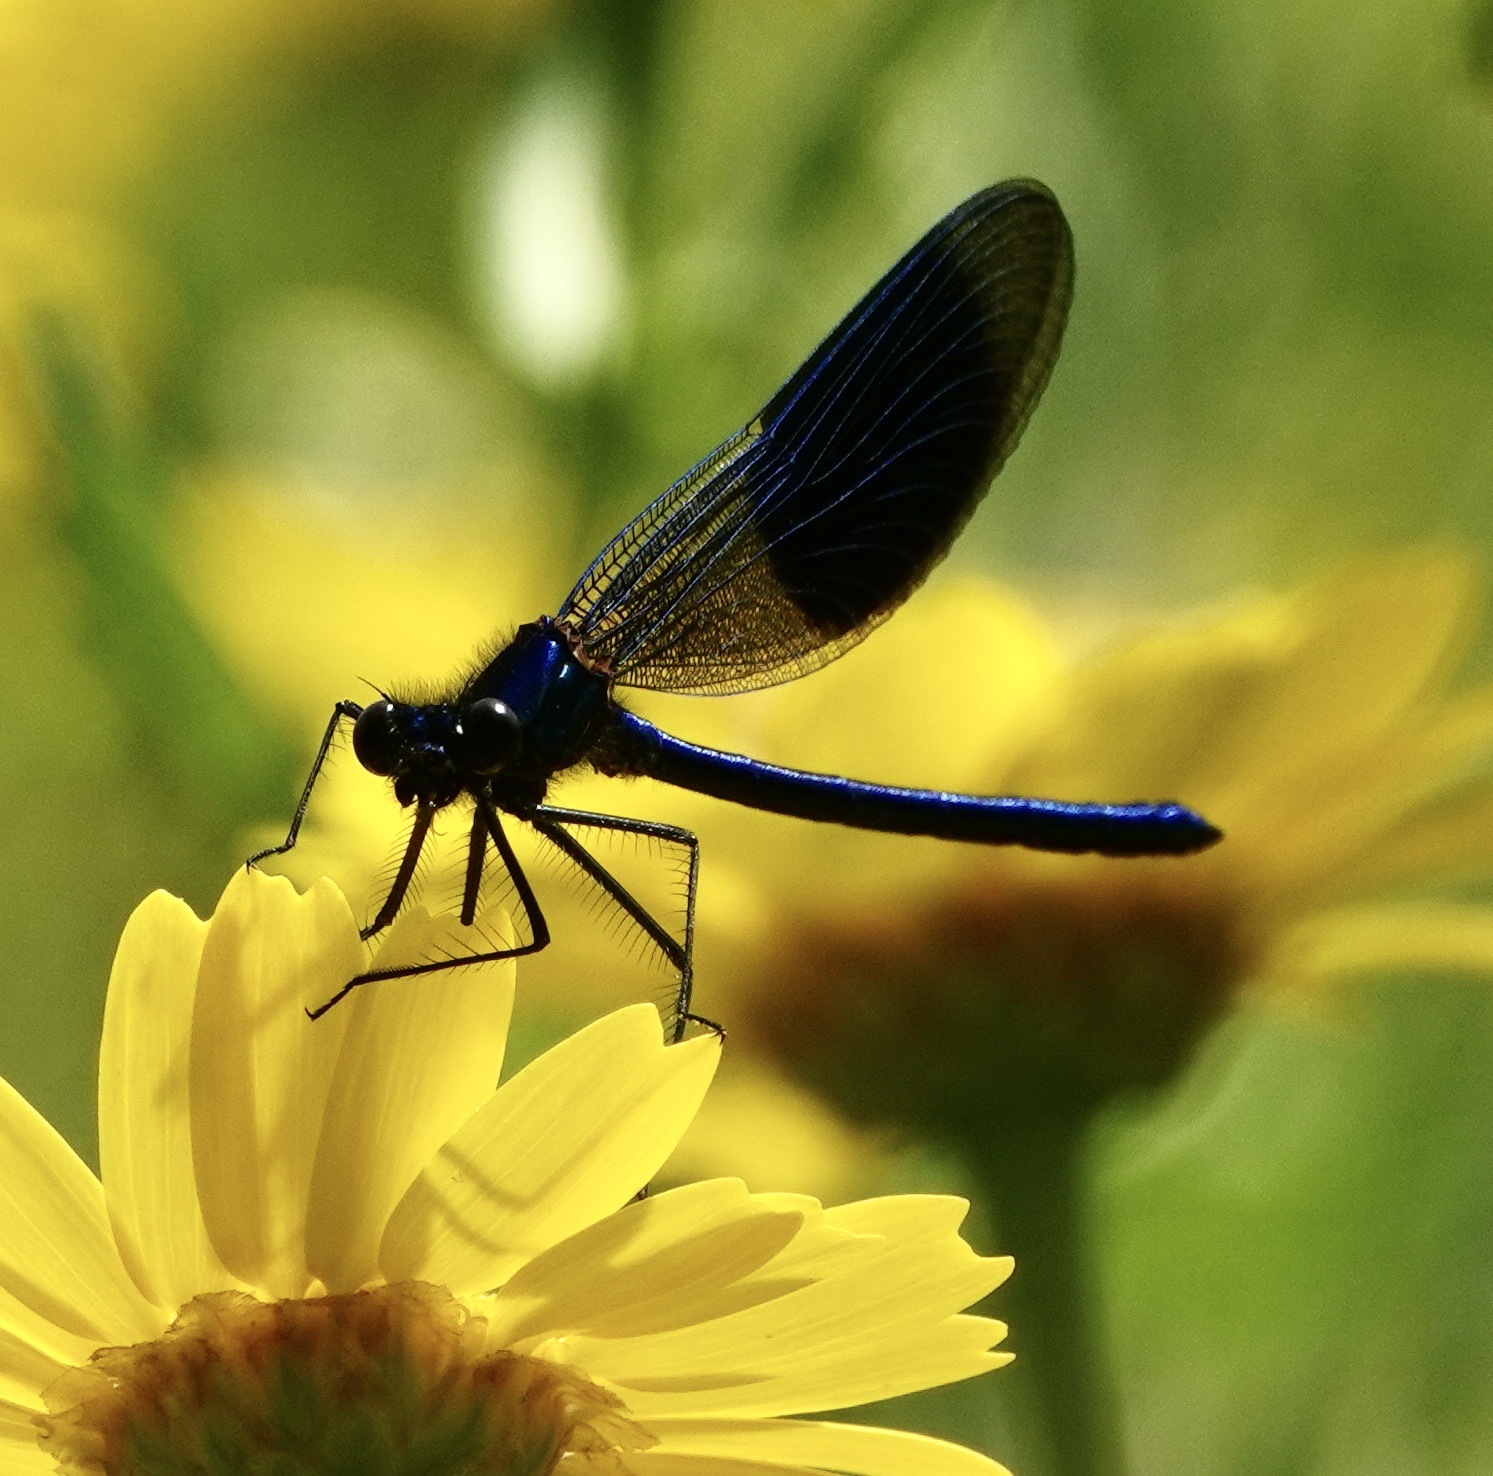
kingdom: Animalia
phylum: Arthropoda
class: Insecta
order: Odonata
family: Calopterygidae
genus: Calopteryx
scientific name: Calopteryx splendens
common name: Banded demoiselle
